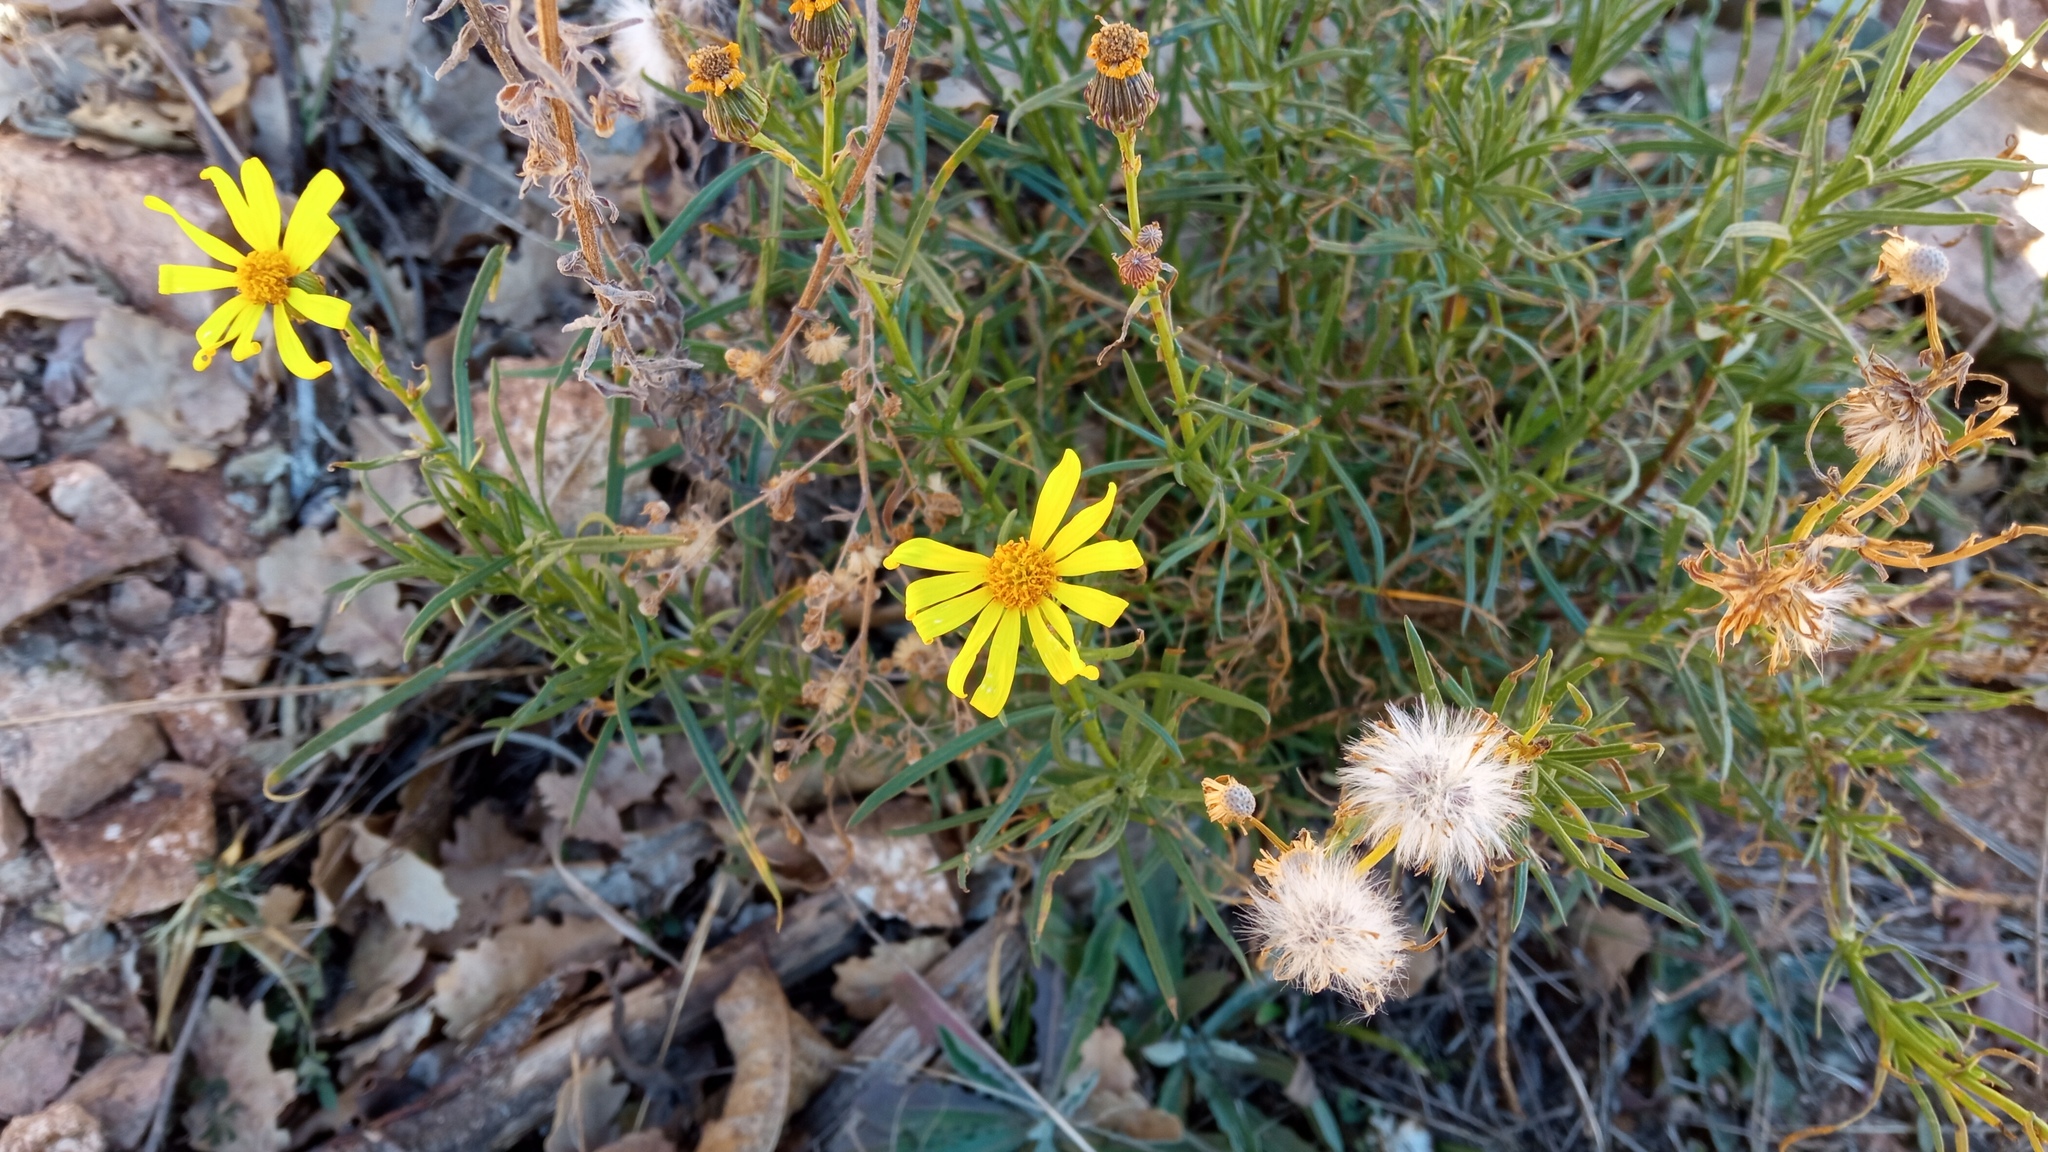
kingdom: Plantae
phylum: Tracheophyta
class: Magnoliopsida
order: Asterales
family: Asteraceae
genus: Senecio
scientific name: Senecio inaequidens
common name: Narrow-leaved ragwort
